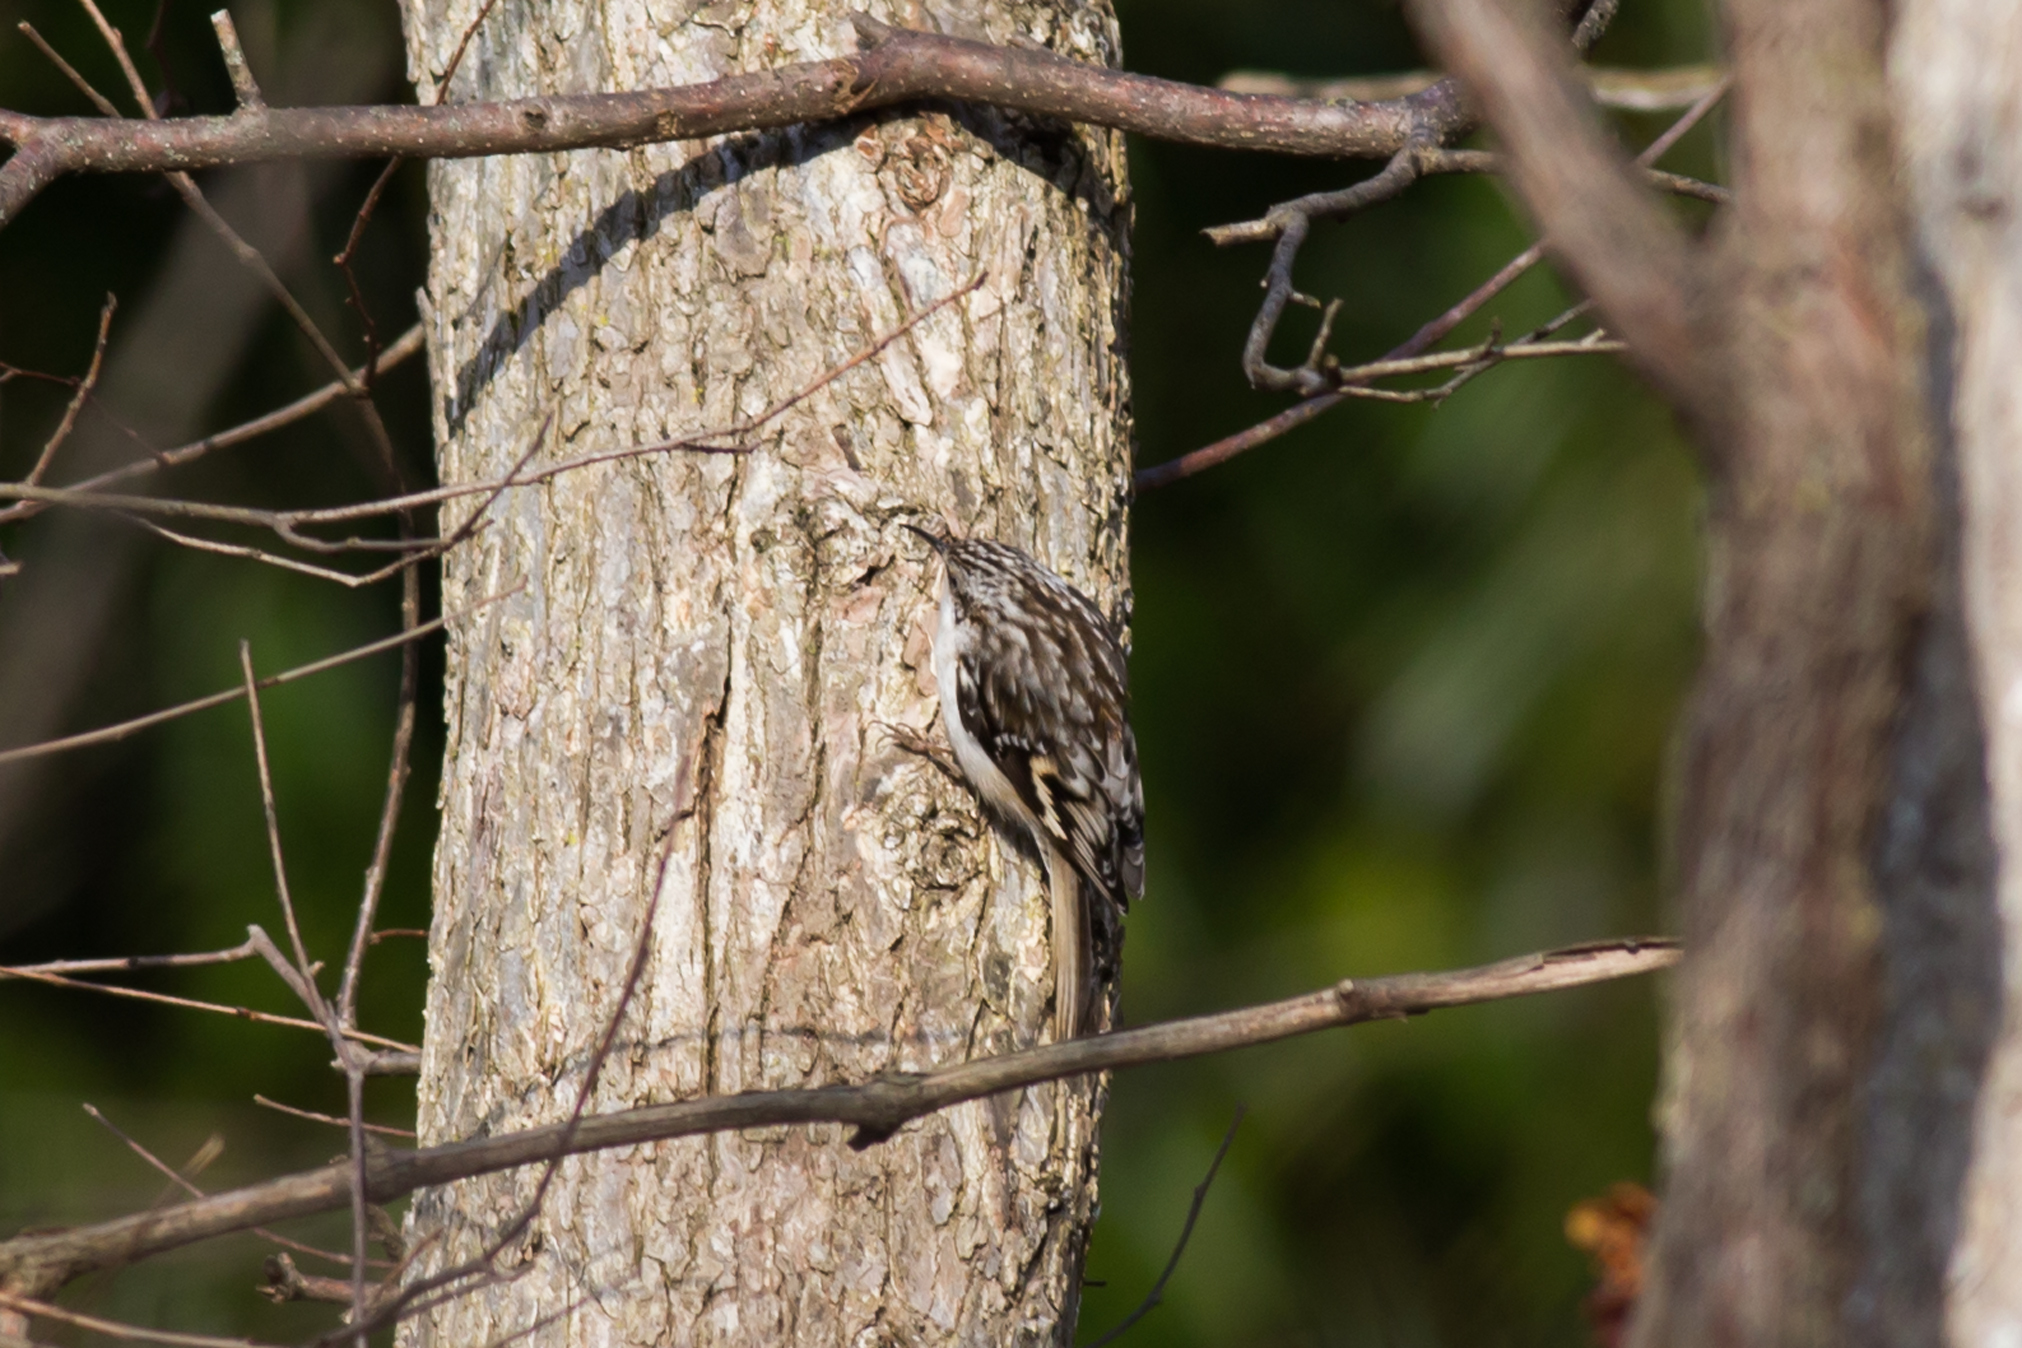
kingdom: Animalia
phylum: Chordata
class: Aves
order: Passeriformes
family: Certhiidae
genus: Certhia
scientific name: Certhia americana
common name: Brown creeper
